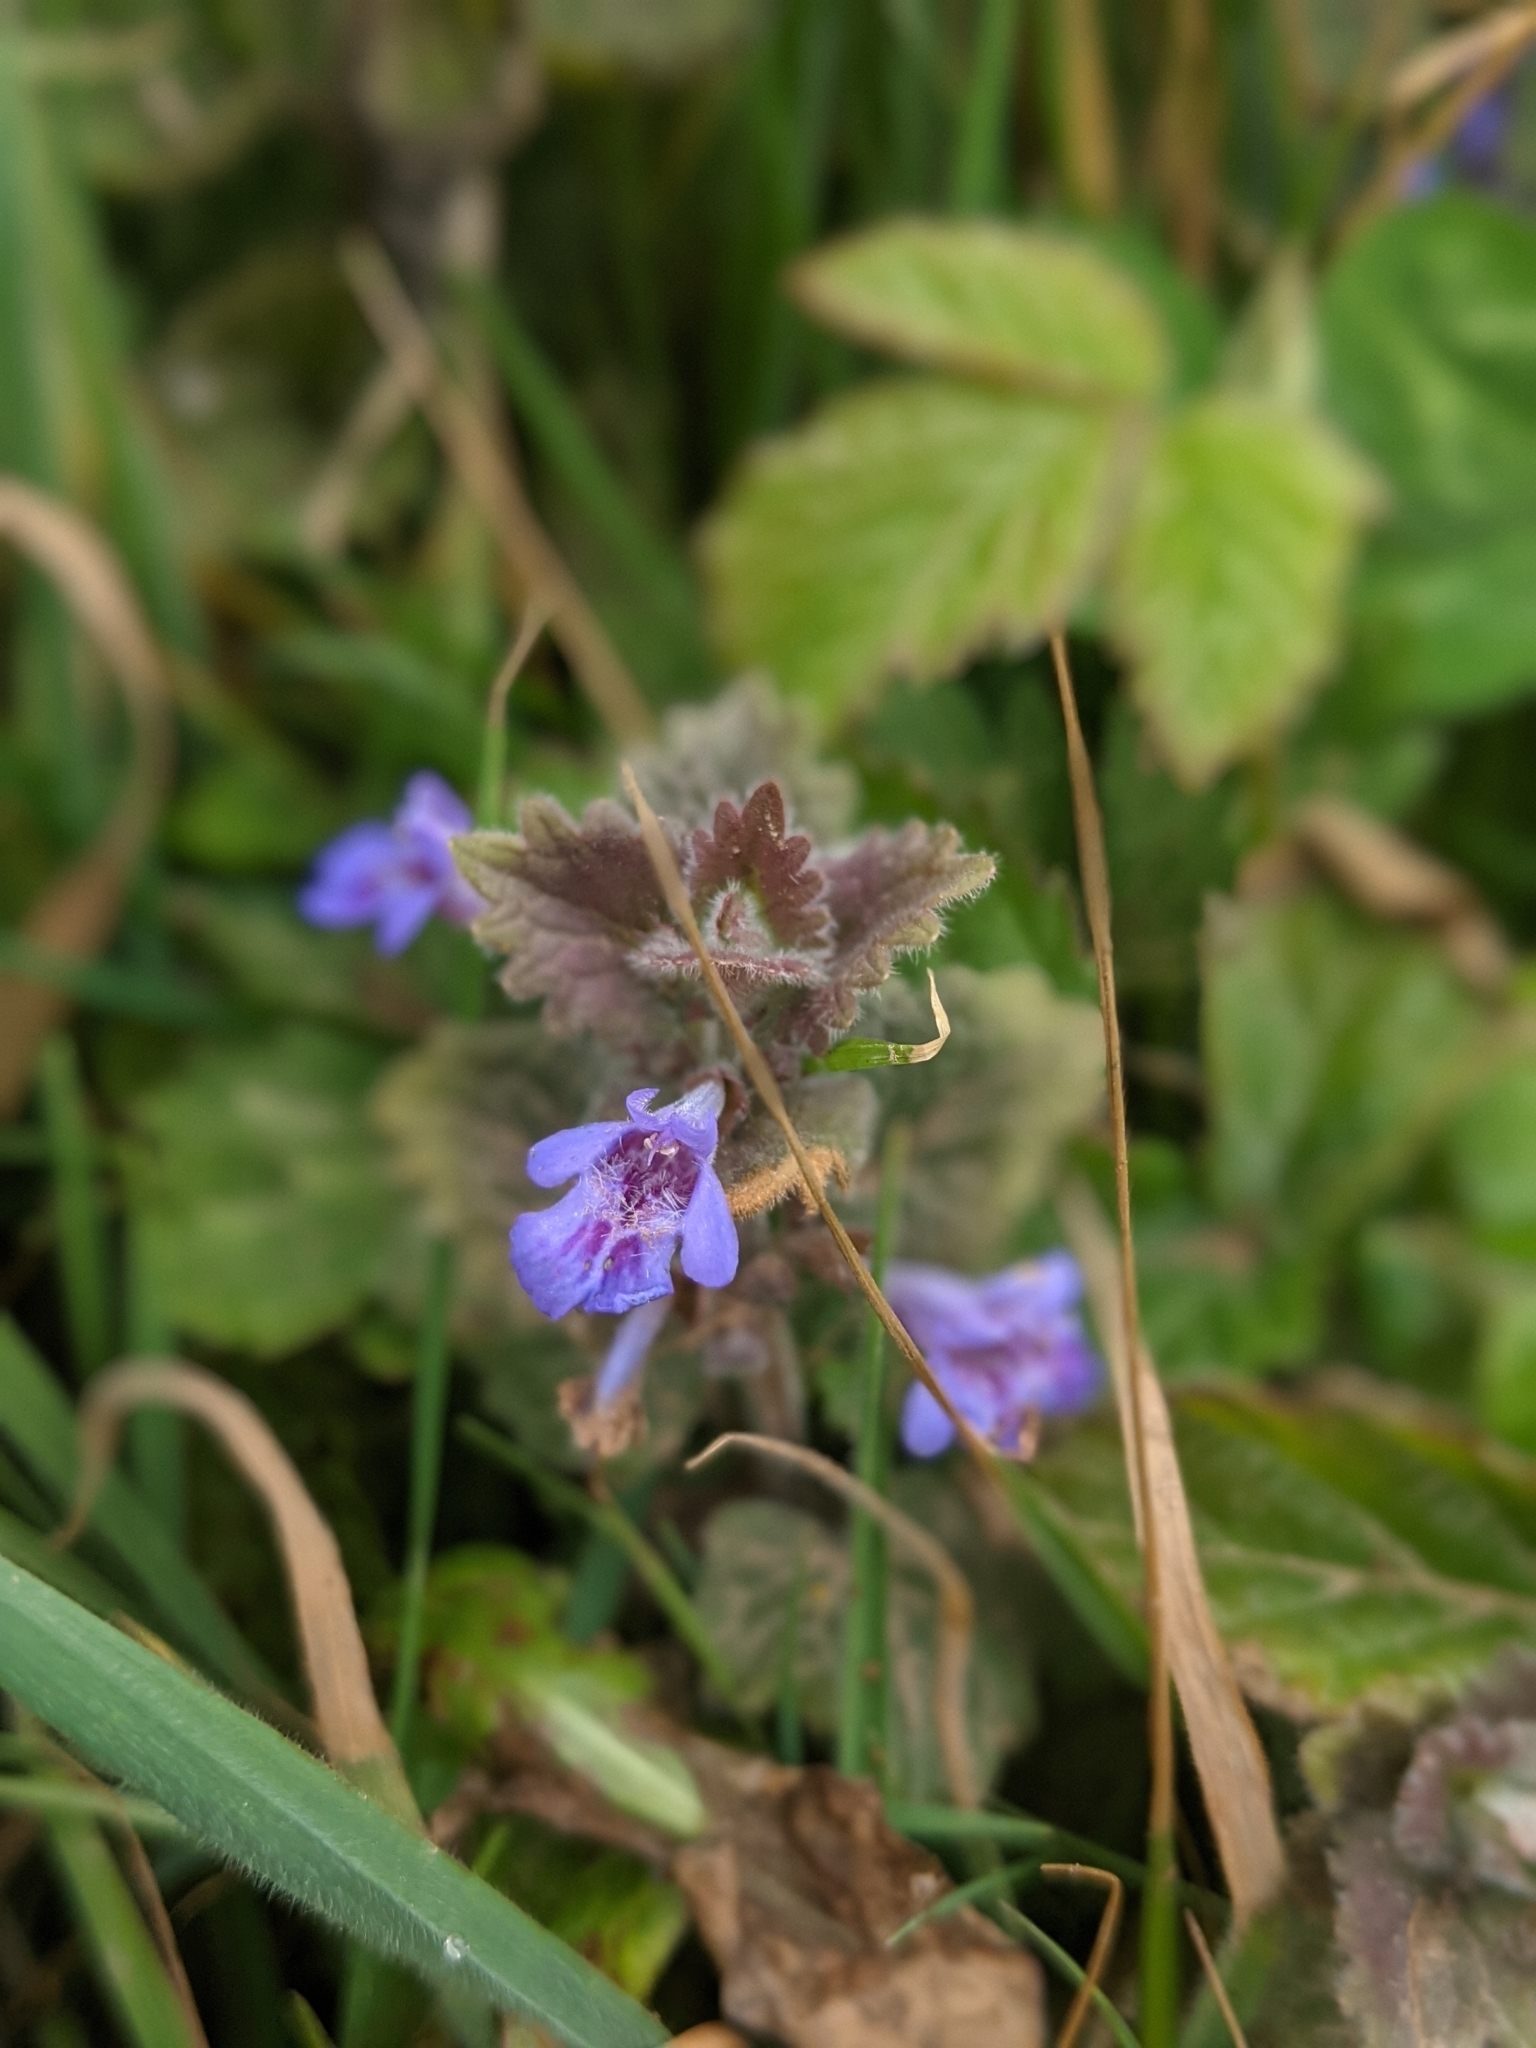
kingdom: Plantae
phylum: Tracheophyta
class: Magnoliopsida
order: Lamiales
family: Lamiaceae
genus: Glechoma
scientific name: Glechoma hederacea
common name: Ground ivy
